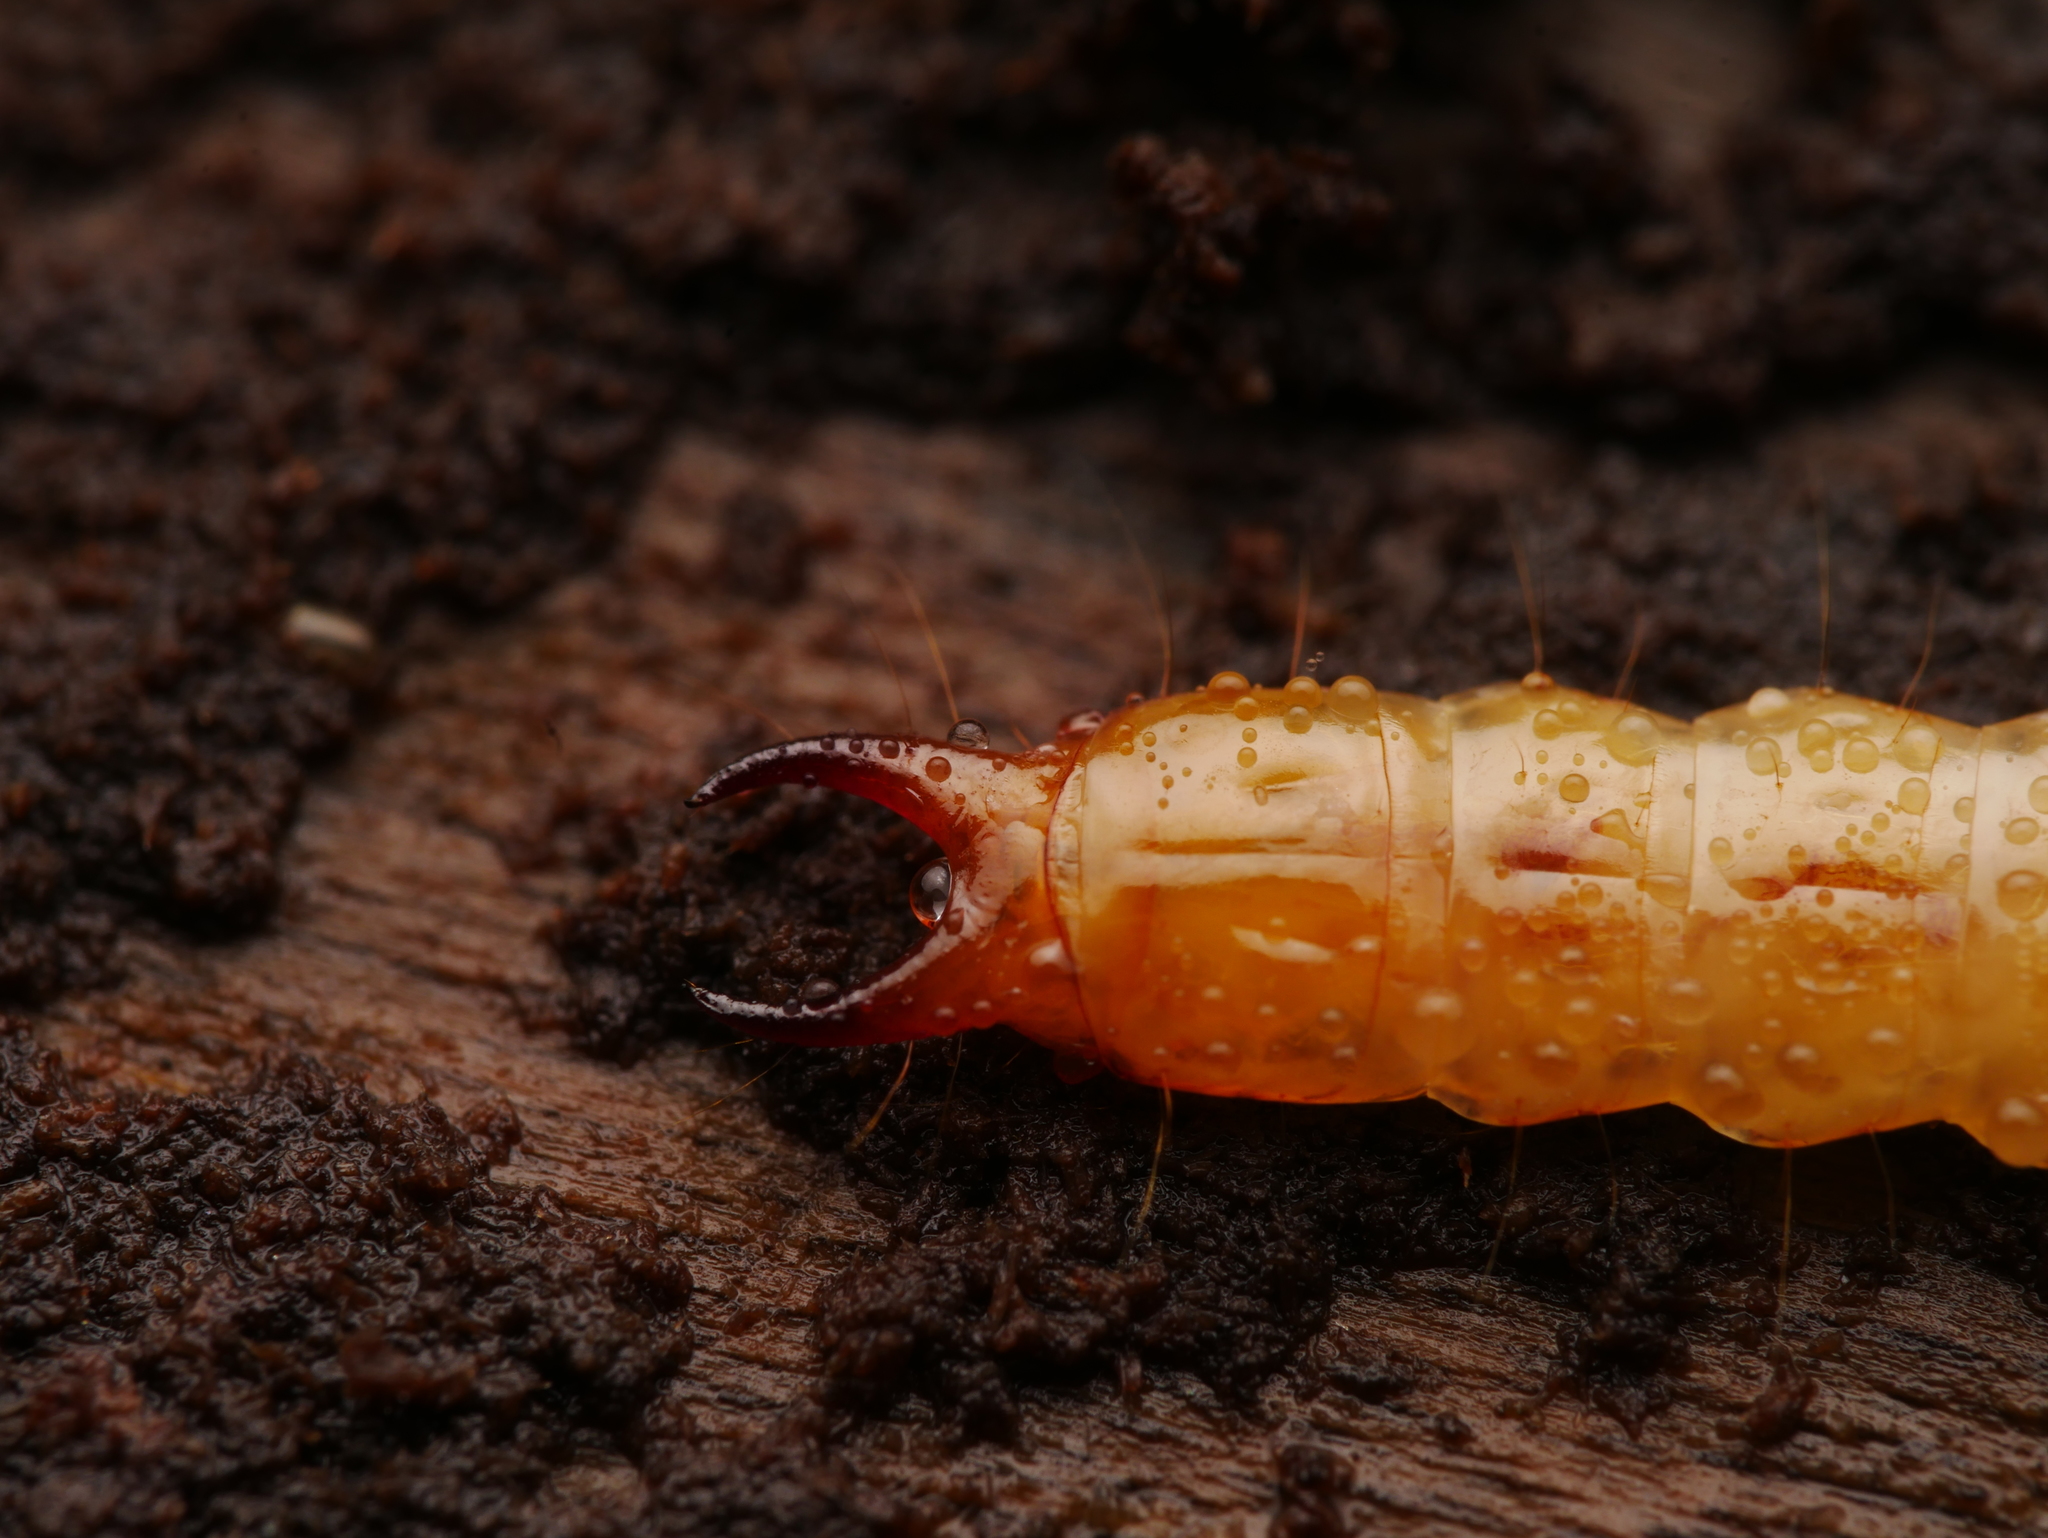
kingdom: Animalia
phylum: Arthropoda
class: Insecta
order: Coleoptera
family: Pyrochroidae
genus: Schizotus
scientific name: Schizotus pectinicornis
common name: Scarce cardinal beetle
